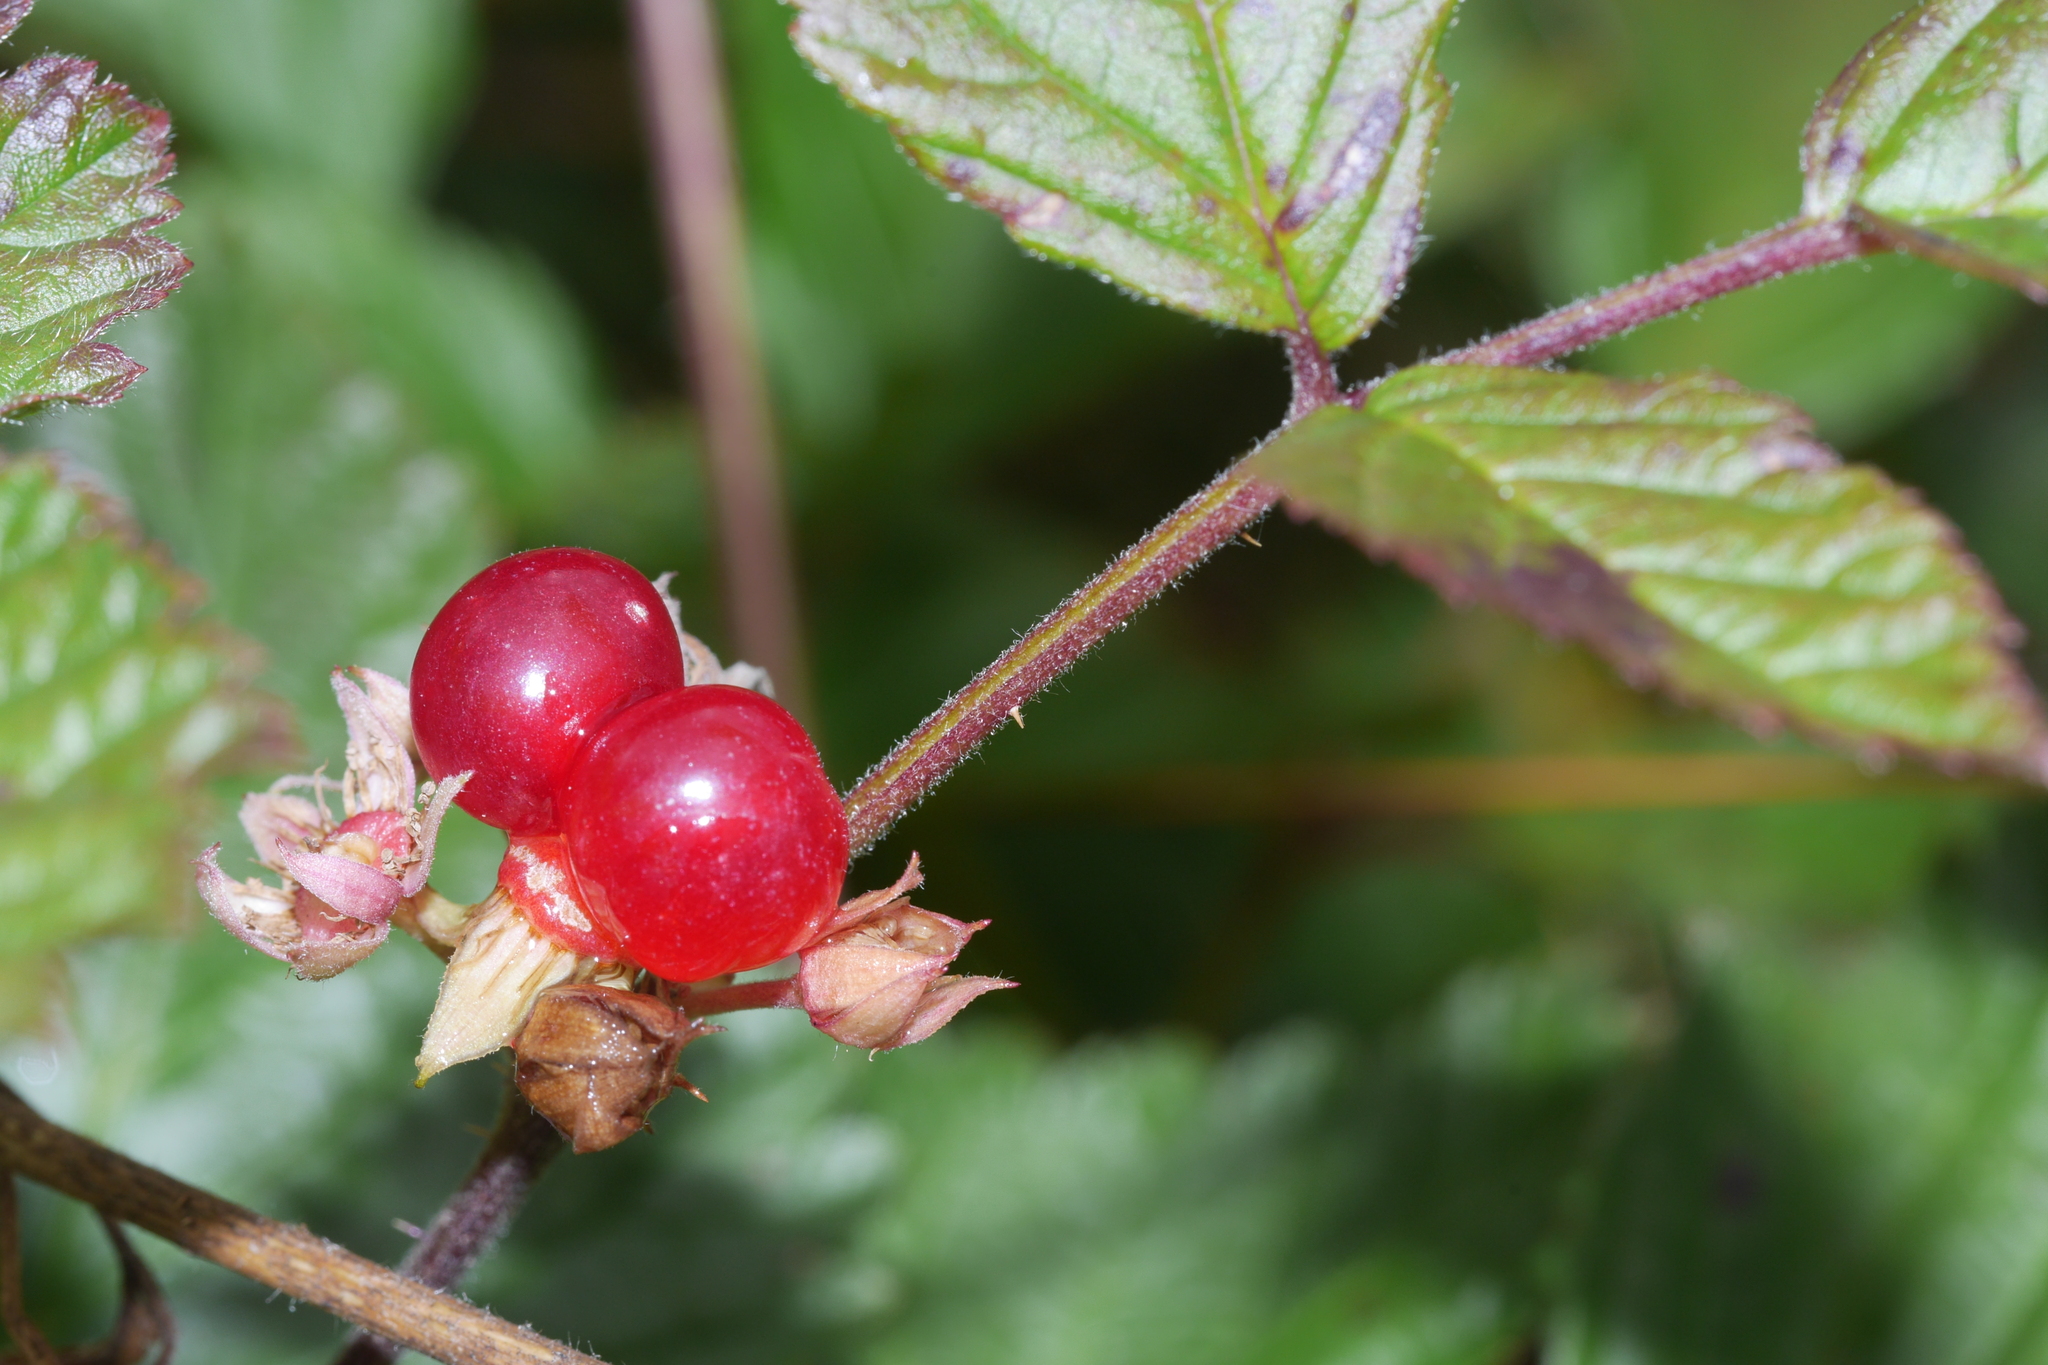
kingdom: Plantae
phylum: Tracheophyta
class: Magnoliopsida
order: Rosales
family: Rosaceae
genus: Rubus
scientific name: Rubus saxatilis
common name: Stone bramble
